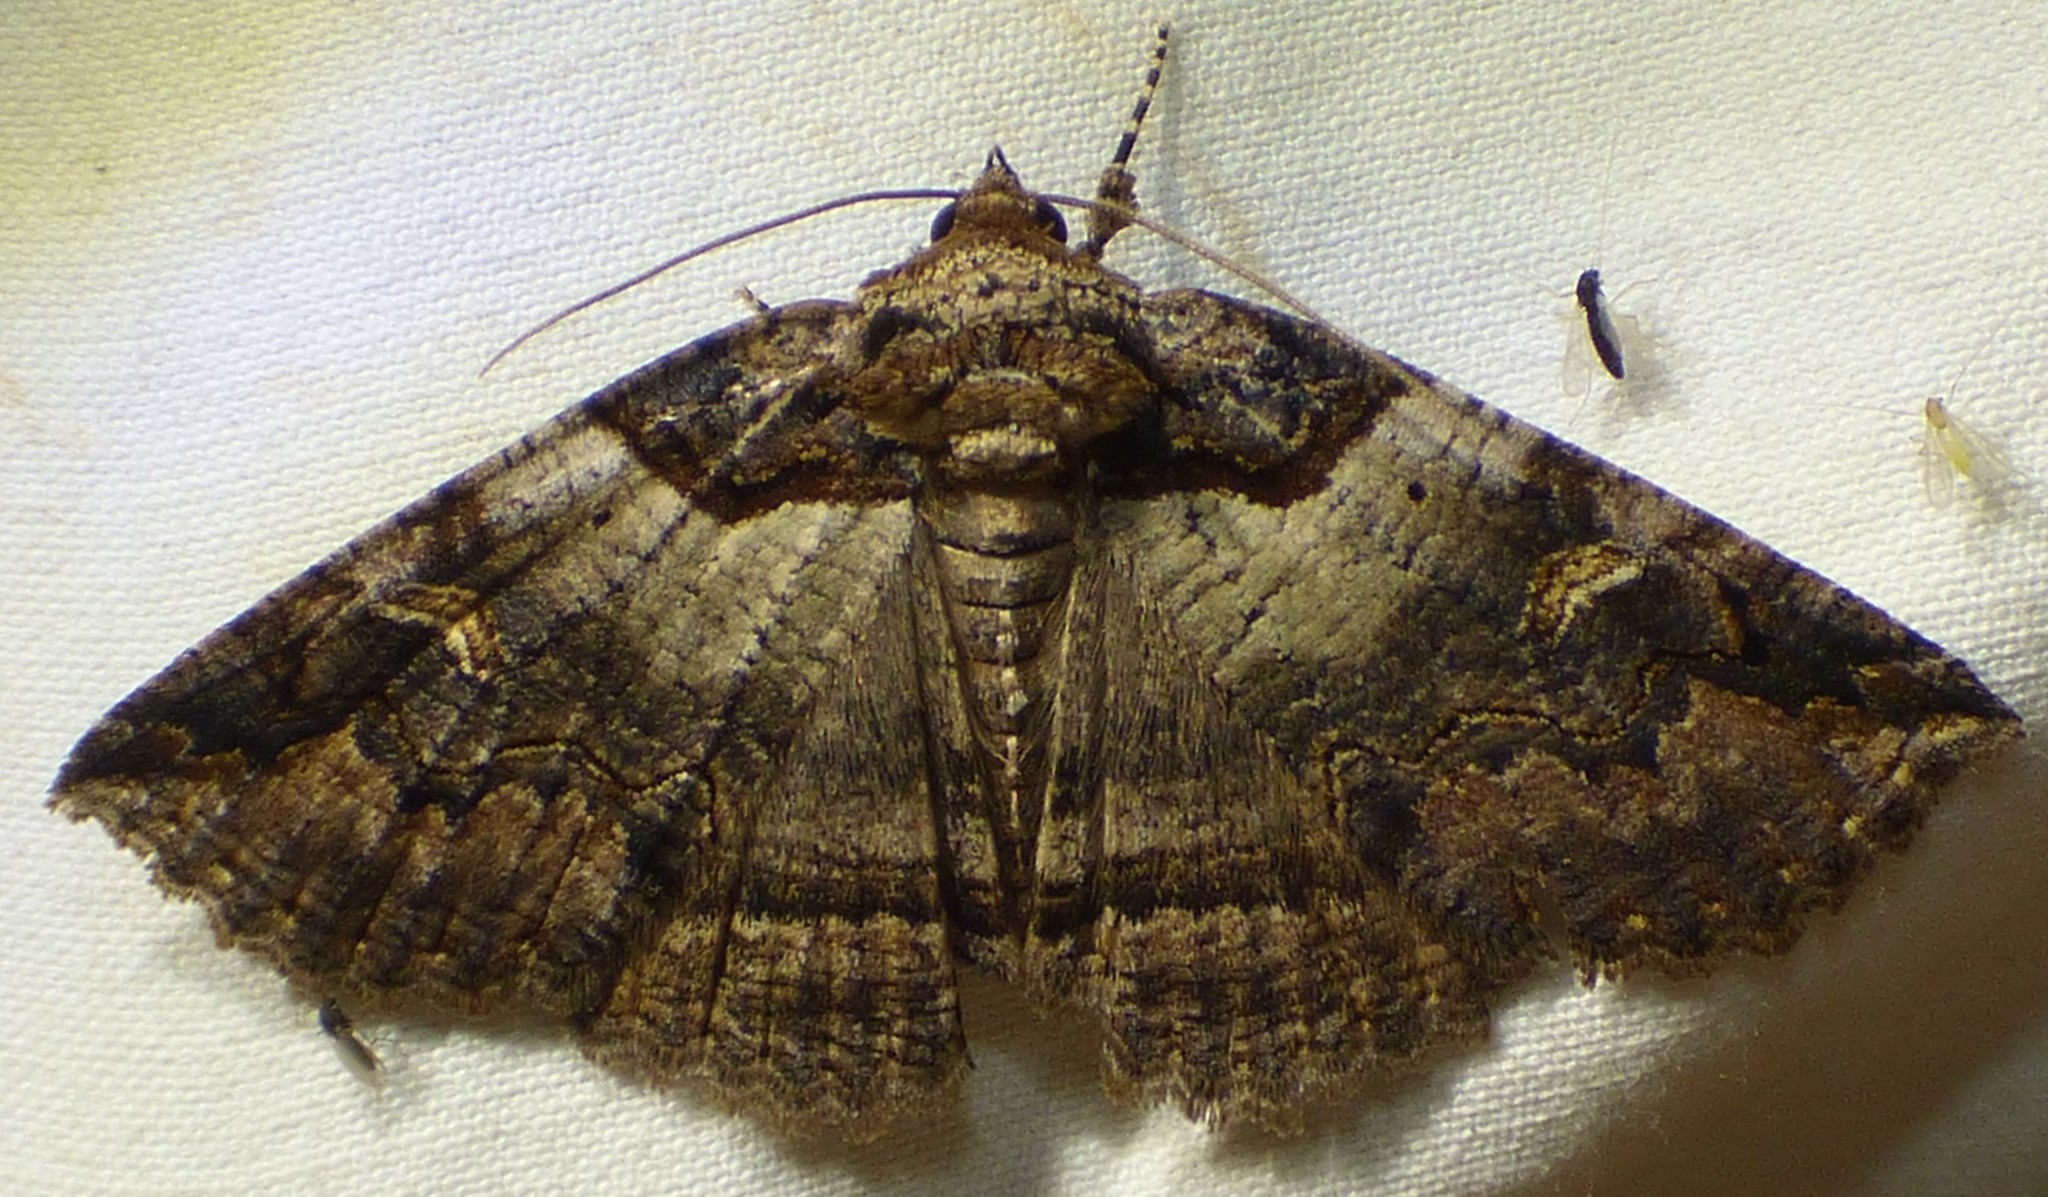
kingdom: Animalia
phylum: Arthropoda
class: Insecta
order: Lepidoptera
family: Erebidae
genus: Zale
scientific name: Zale intenta
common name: Intent zale moth
